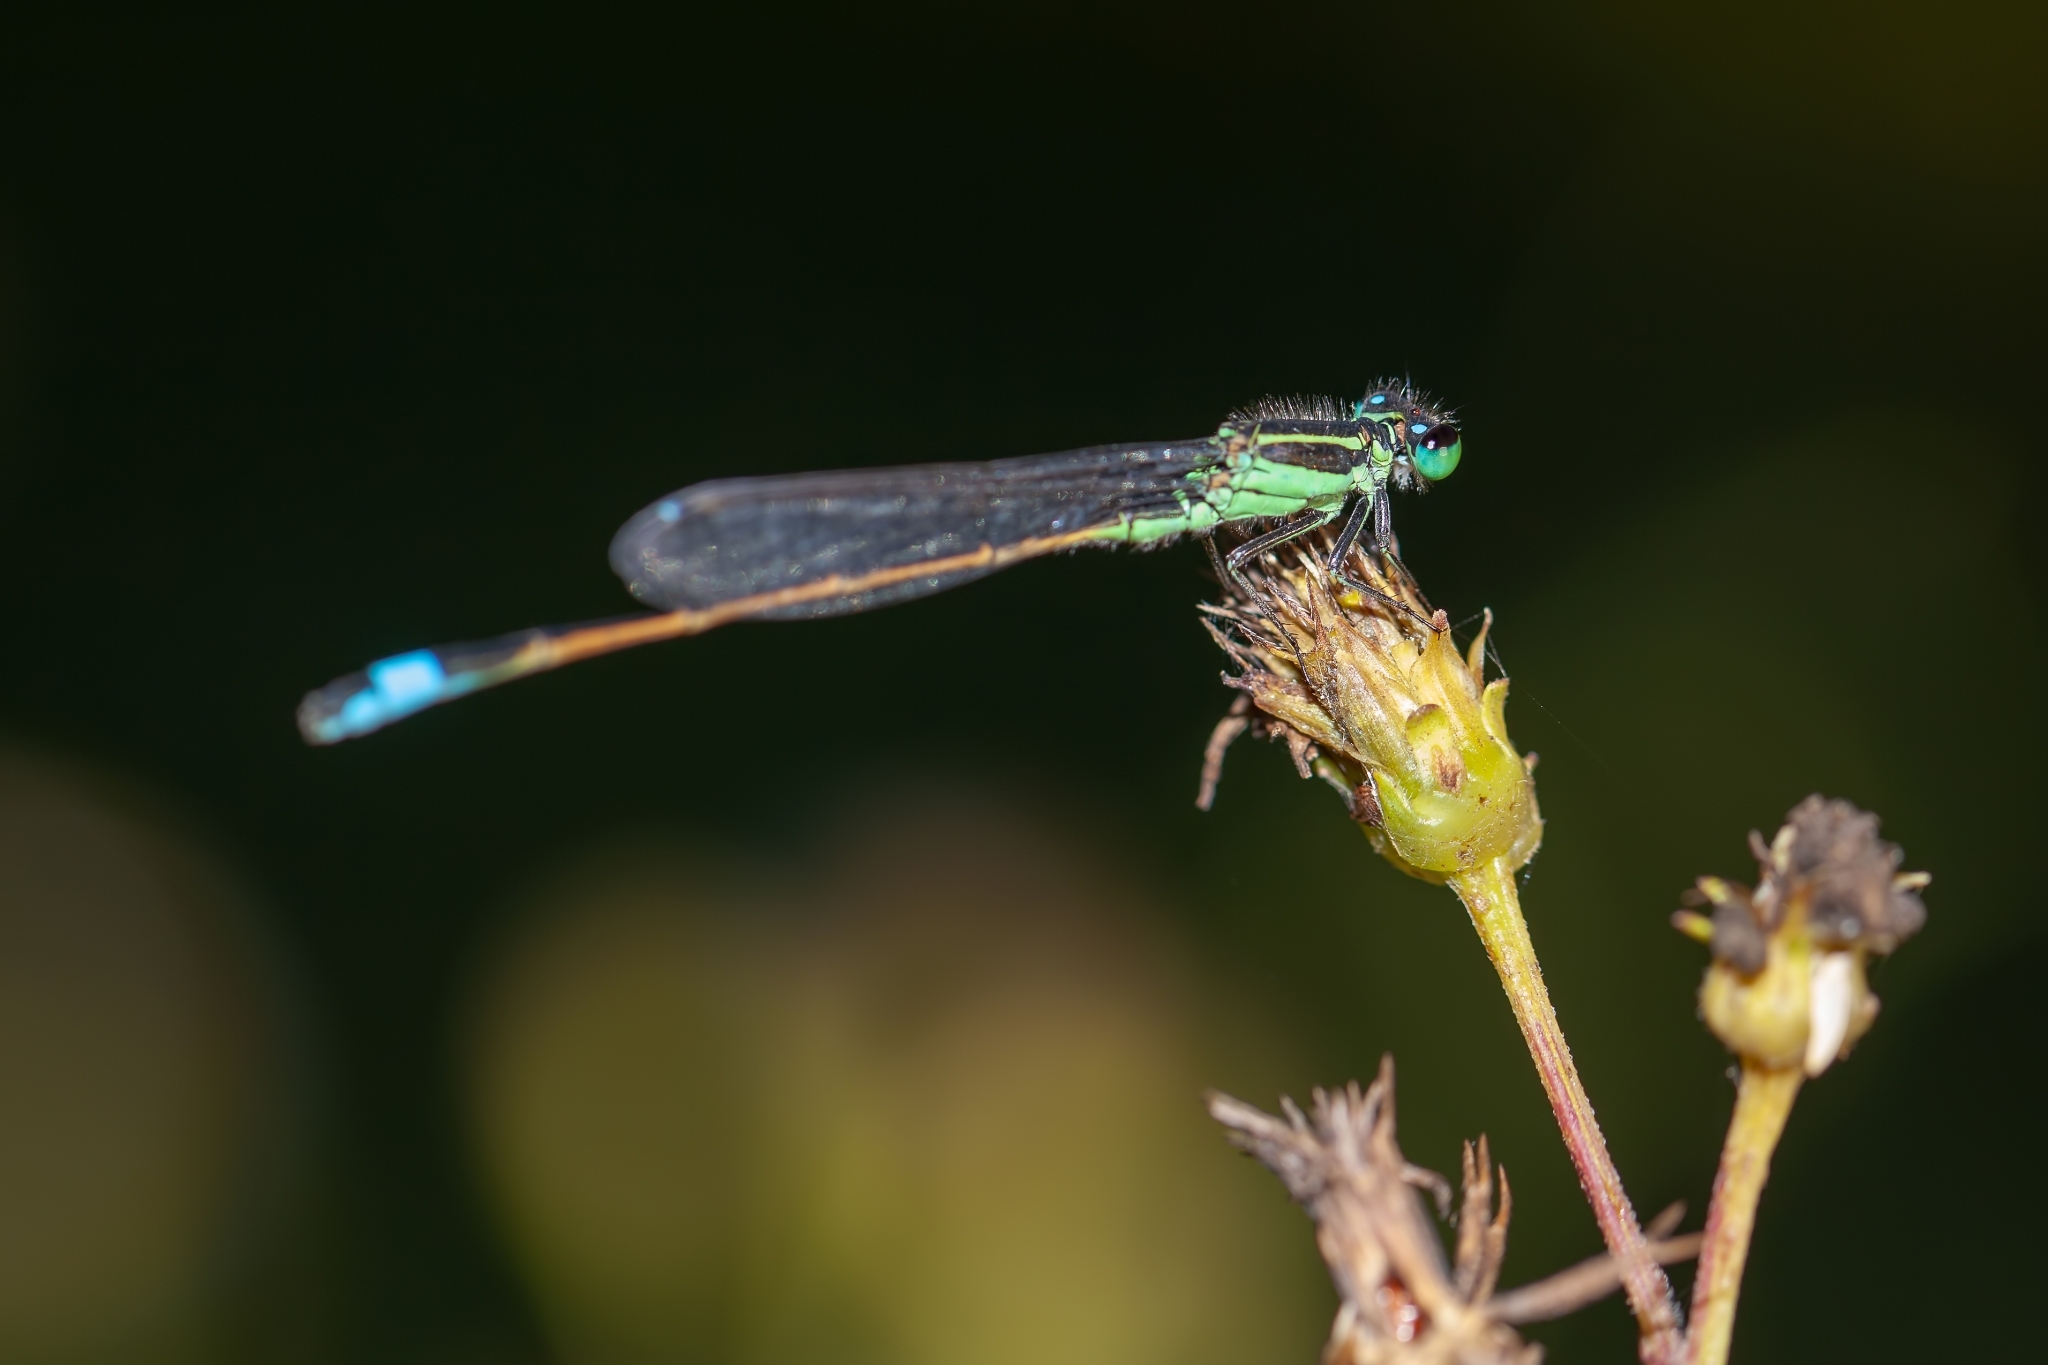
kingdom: Animalia
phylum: Arthropoda
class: Insecta
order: Odonata
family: Coenagrionidae
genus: Ischnura
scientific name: Ischnura ramburii
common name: Rambur's forktail
